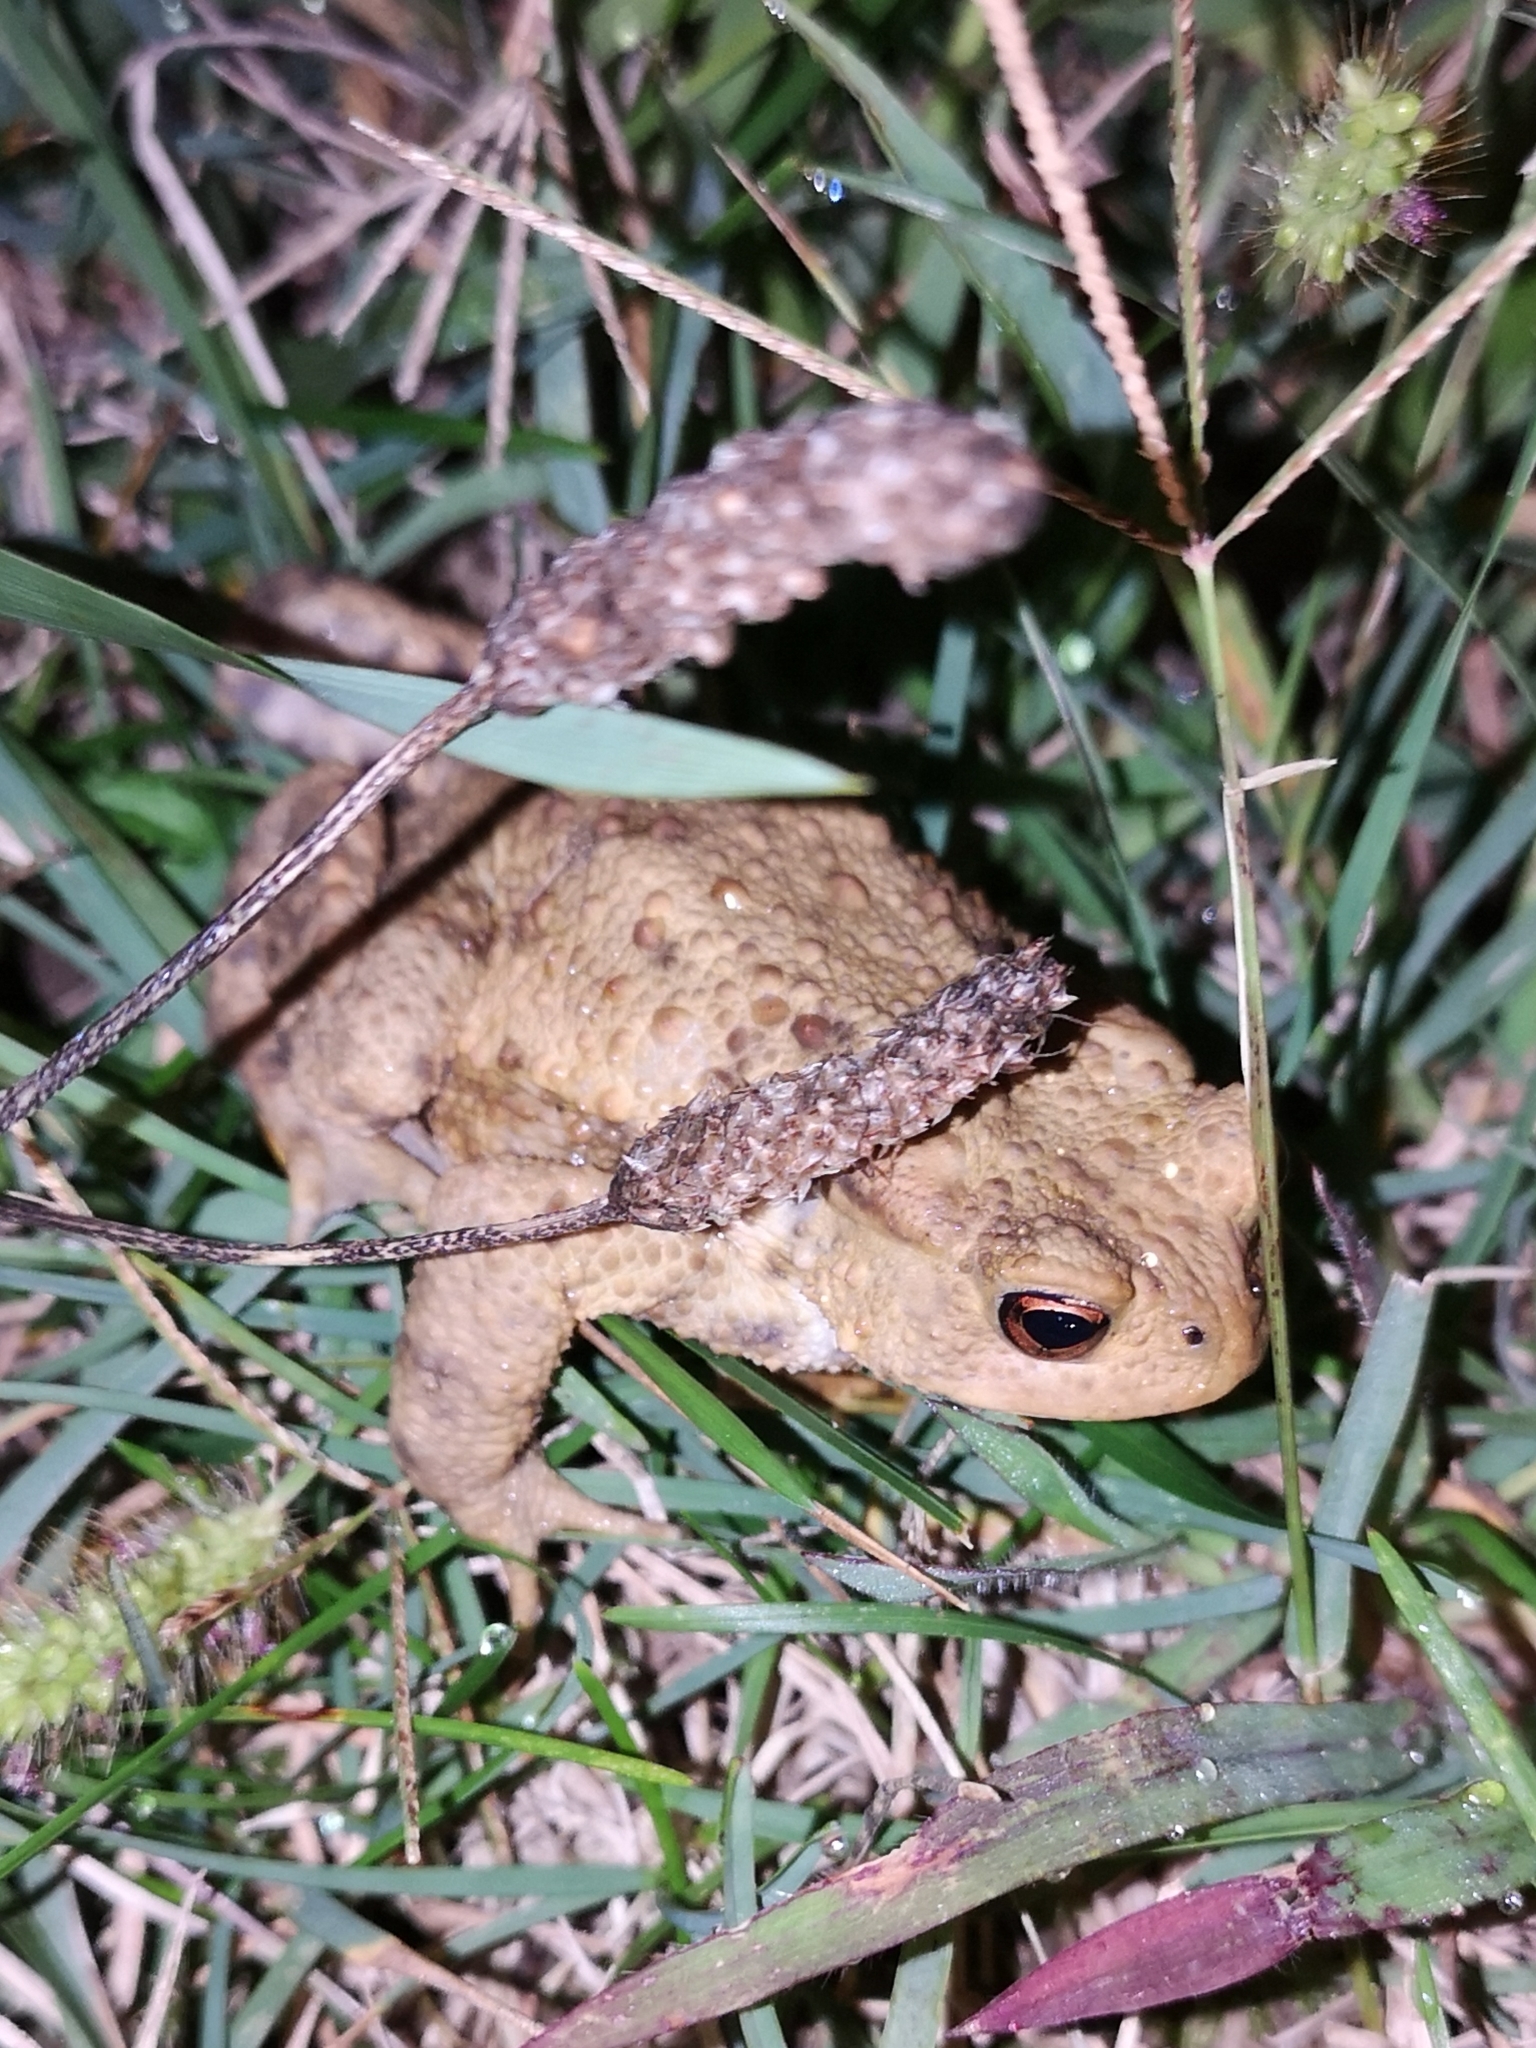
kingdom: Animalia
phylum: Chordata
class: Amphibia
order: Anura
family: Bufonidae
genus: Bufo
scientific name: Bufo bufo
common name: Common toad
